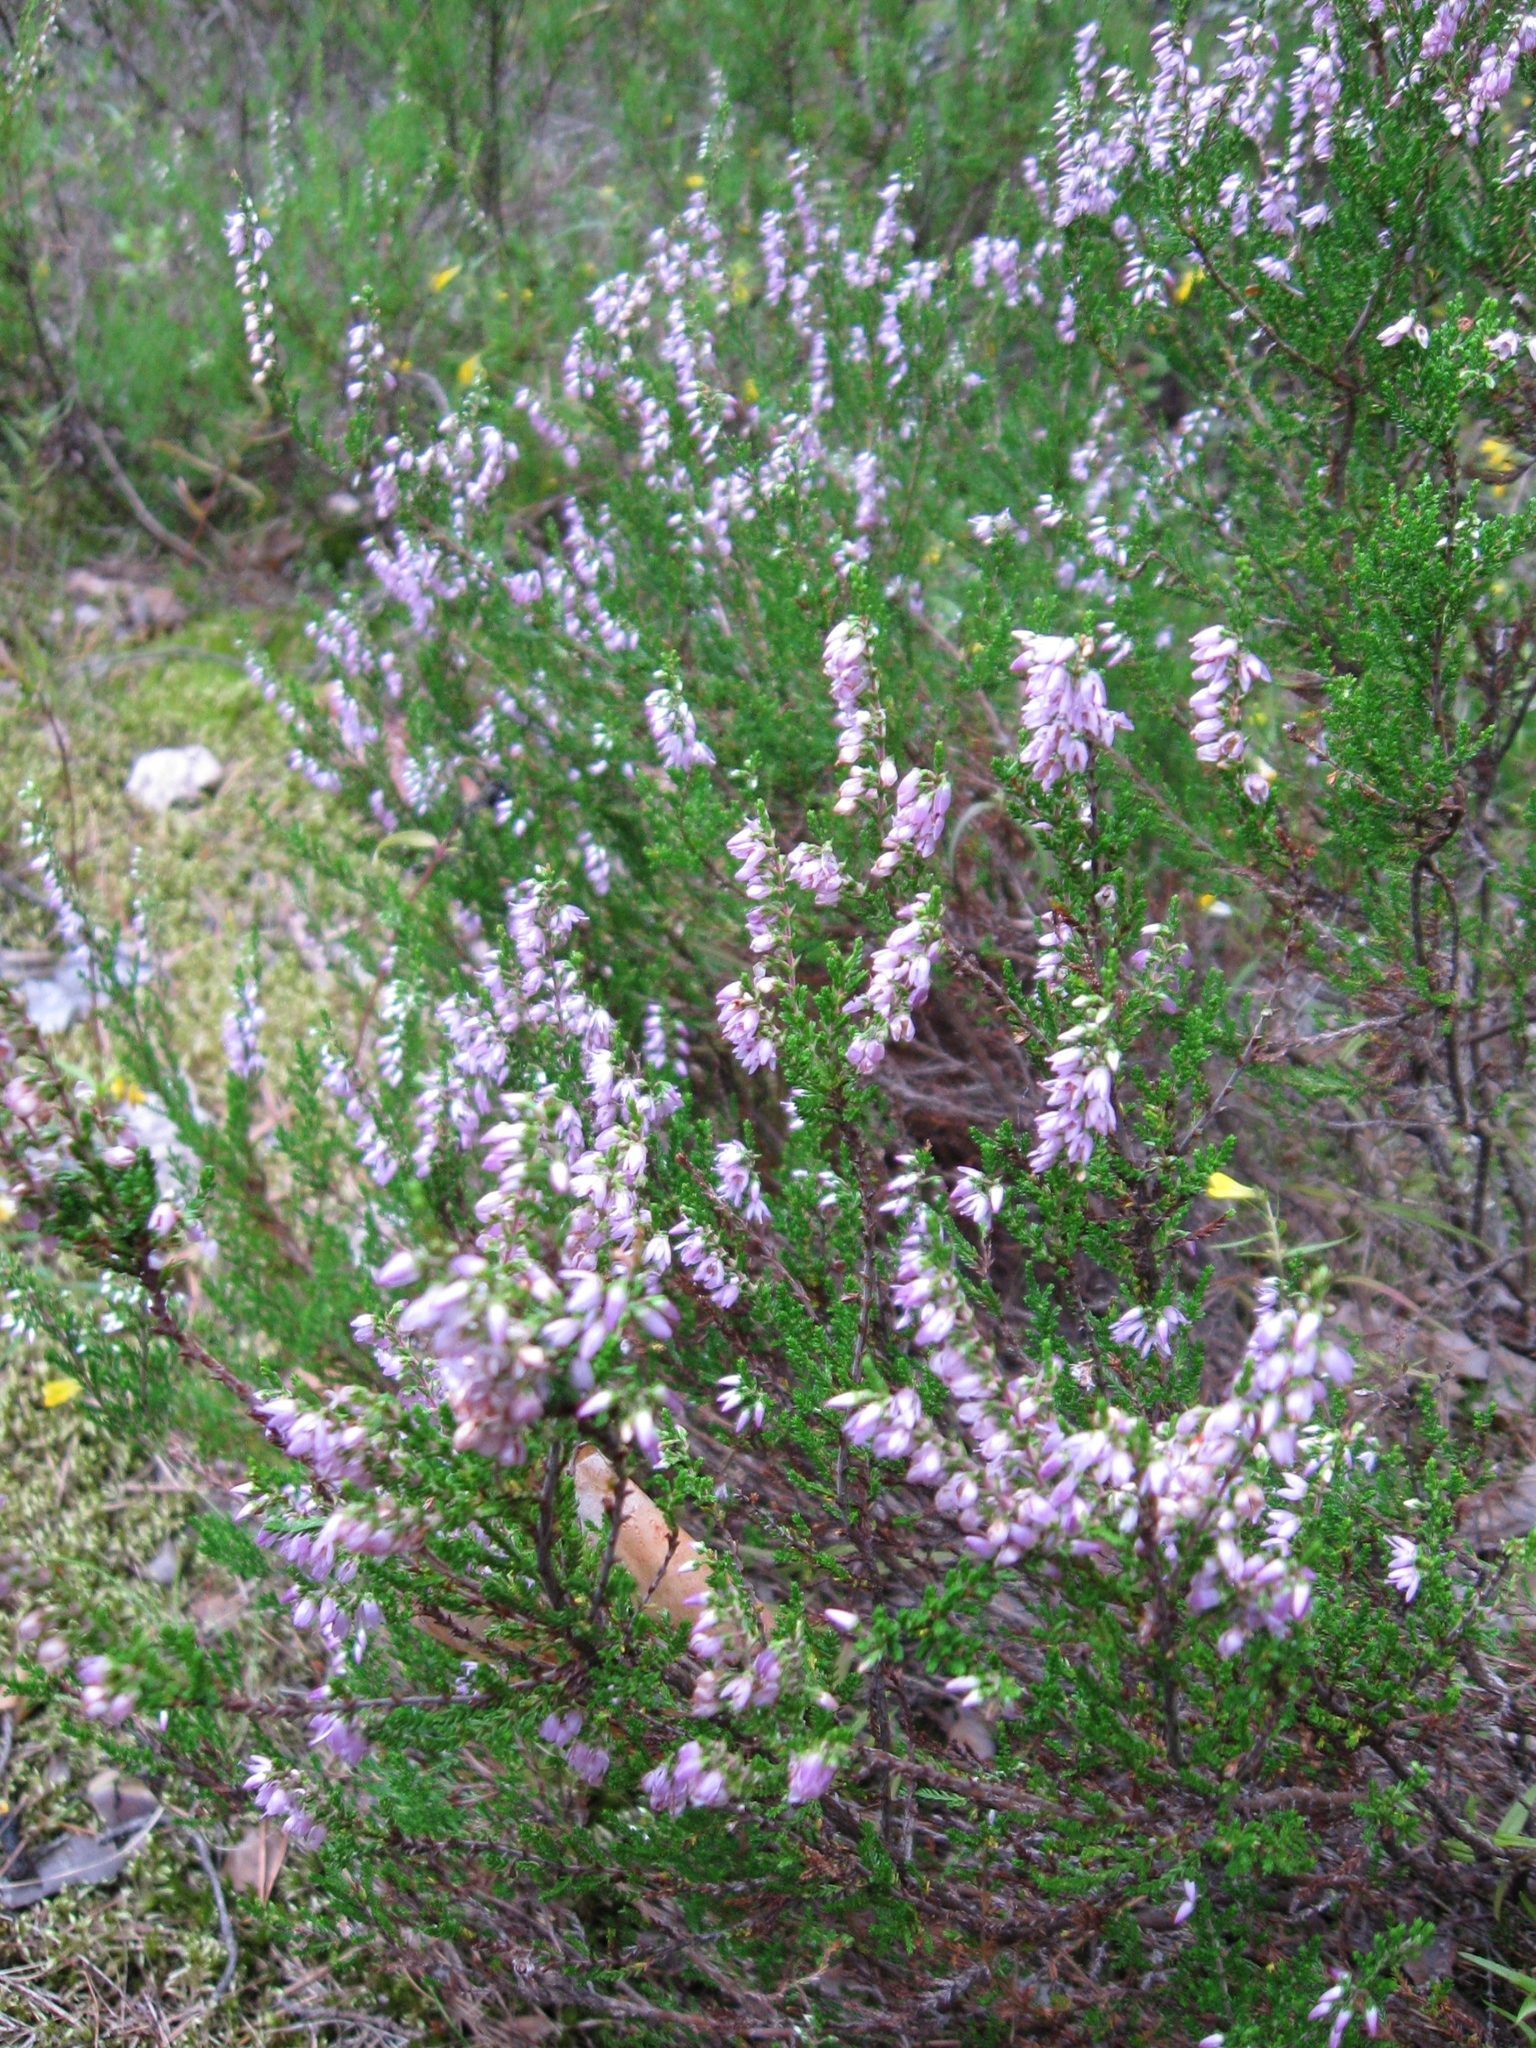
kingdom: Plantae
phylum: Tracheophyta
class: Magnoliopsida
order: Ericales
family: Ericaceae
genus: Calluna
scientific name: Calluna vulgaris
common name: Heather
